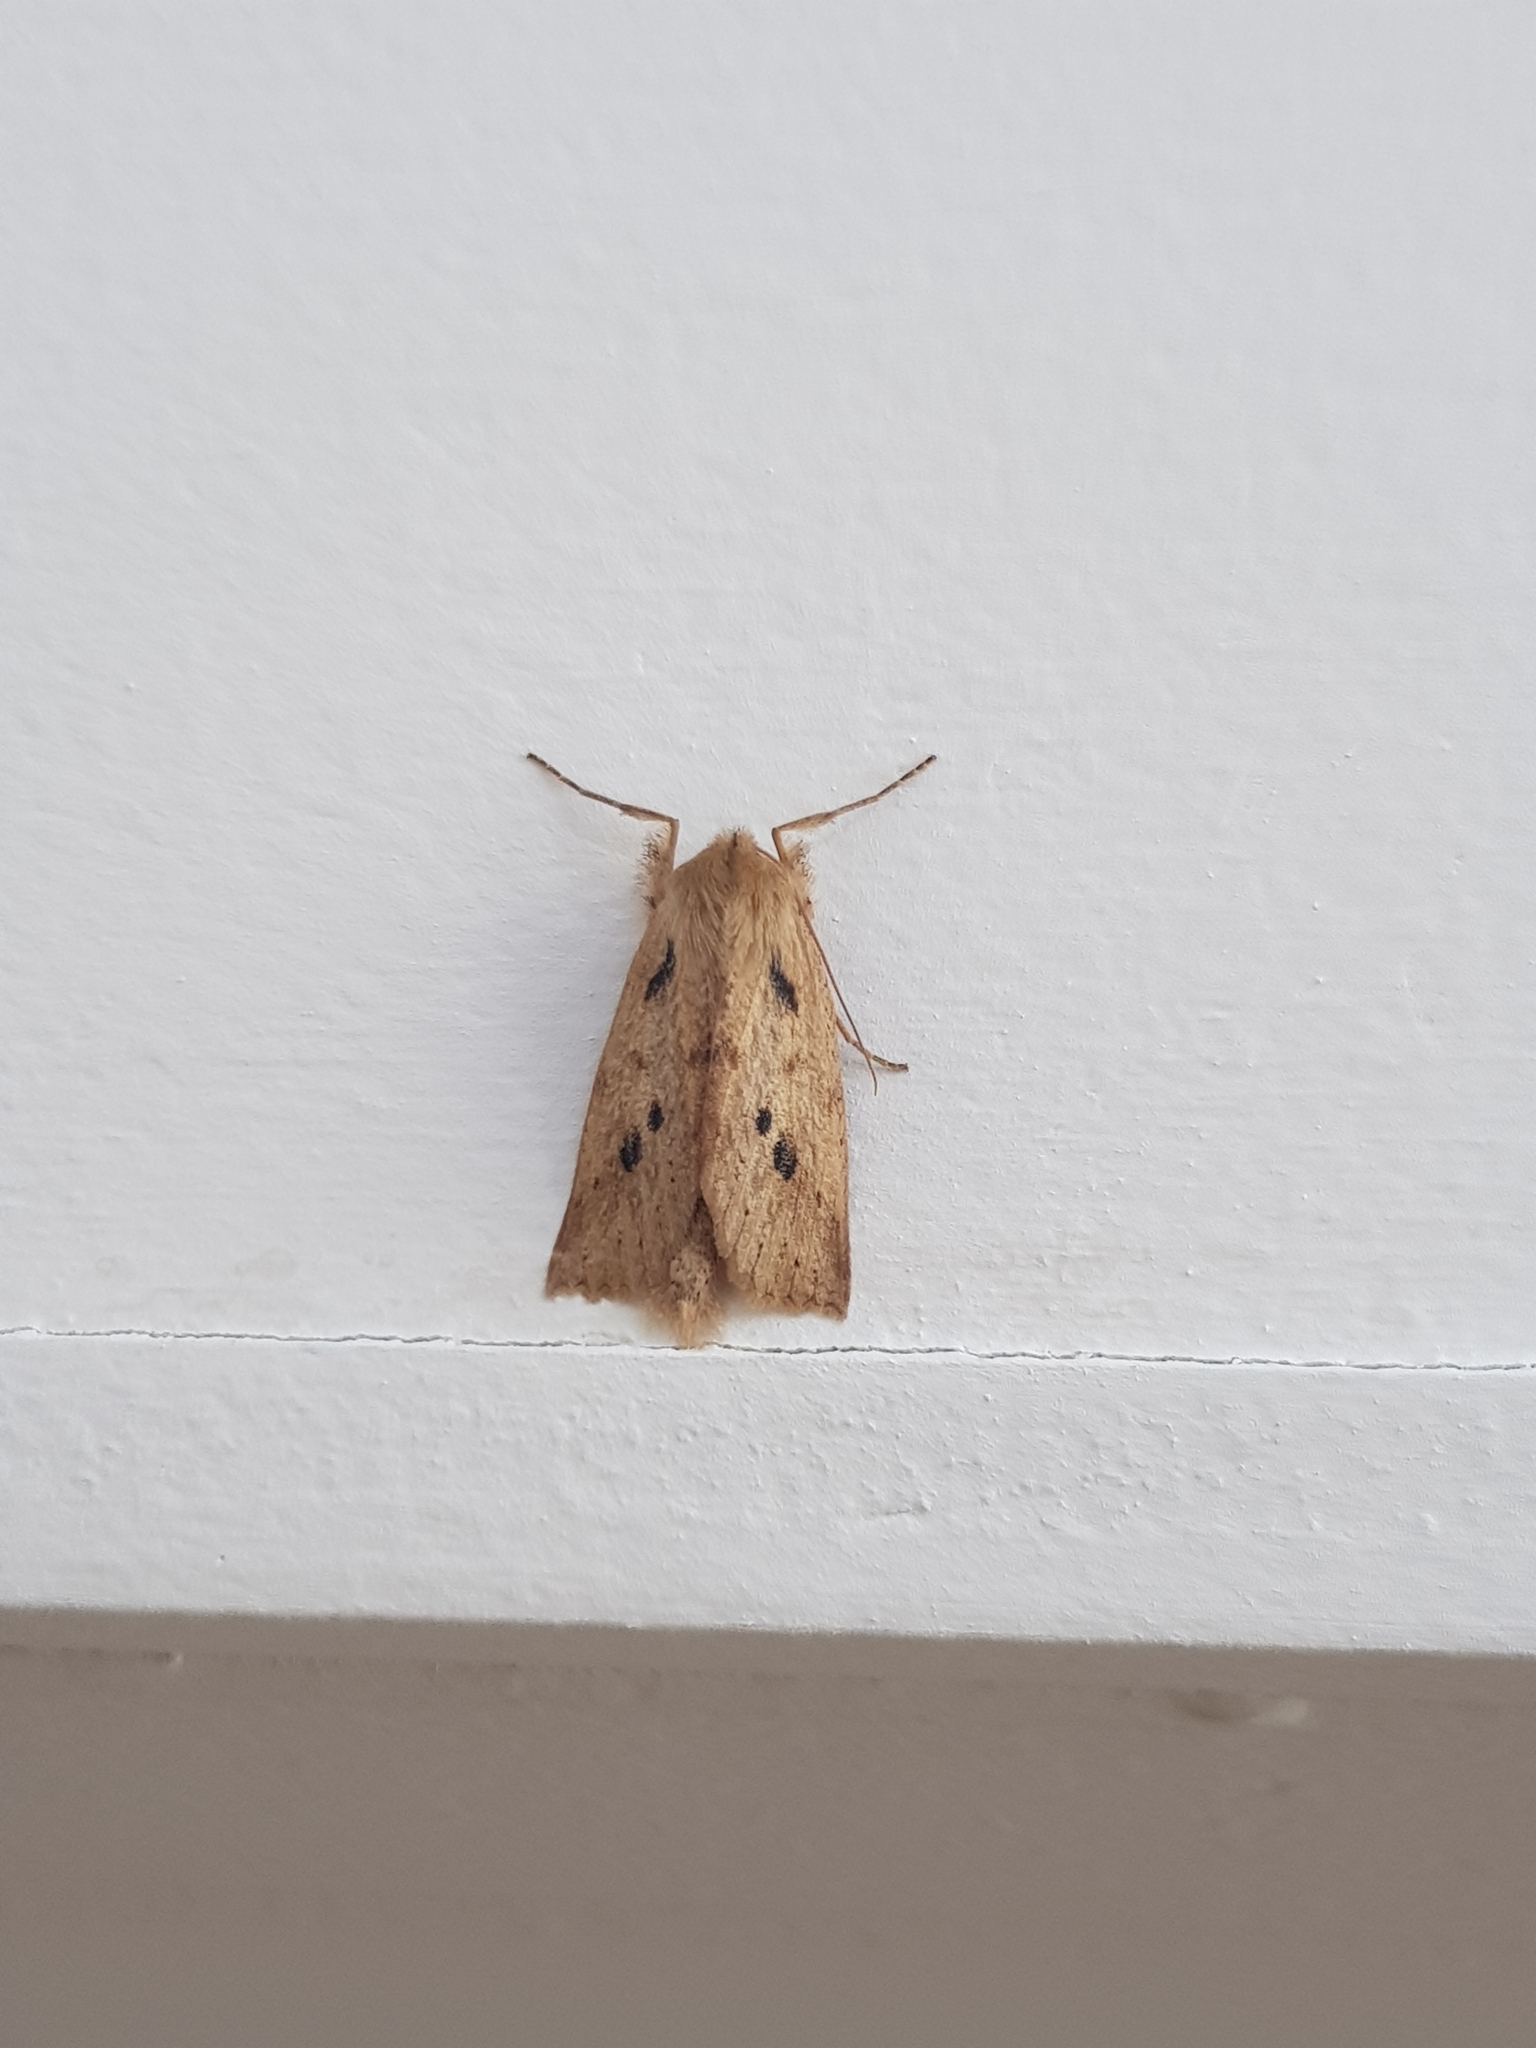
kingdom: Animalia
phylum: Arthropoda
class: Insecta
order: Lepidoptera
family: Geometridae
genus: Declana
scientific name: Declana leptomera
